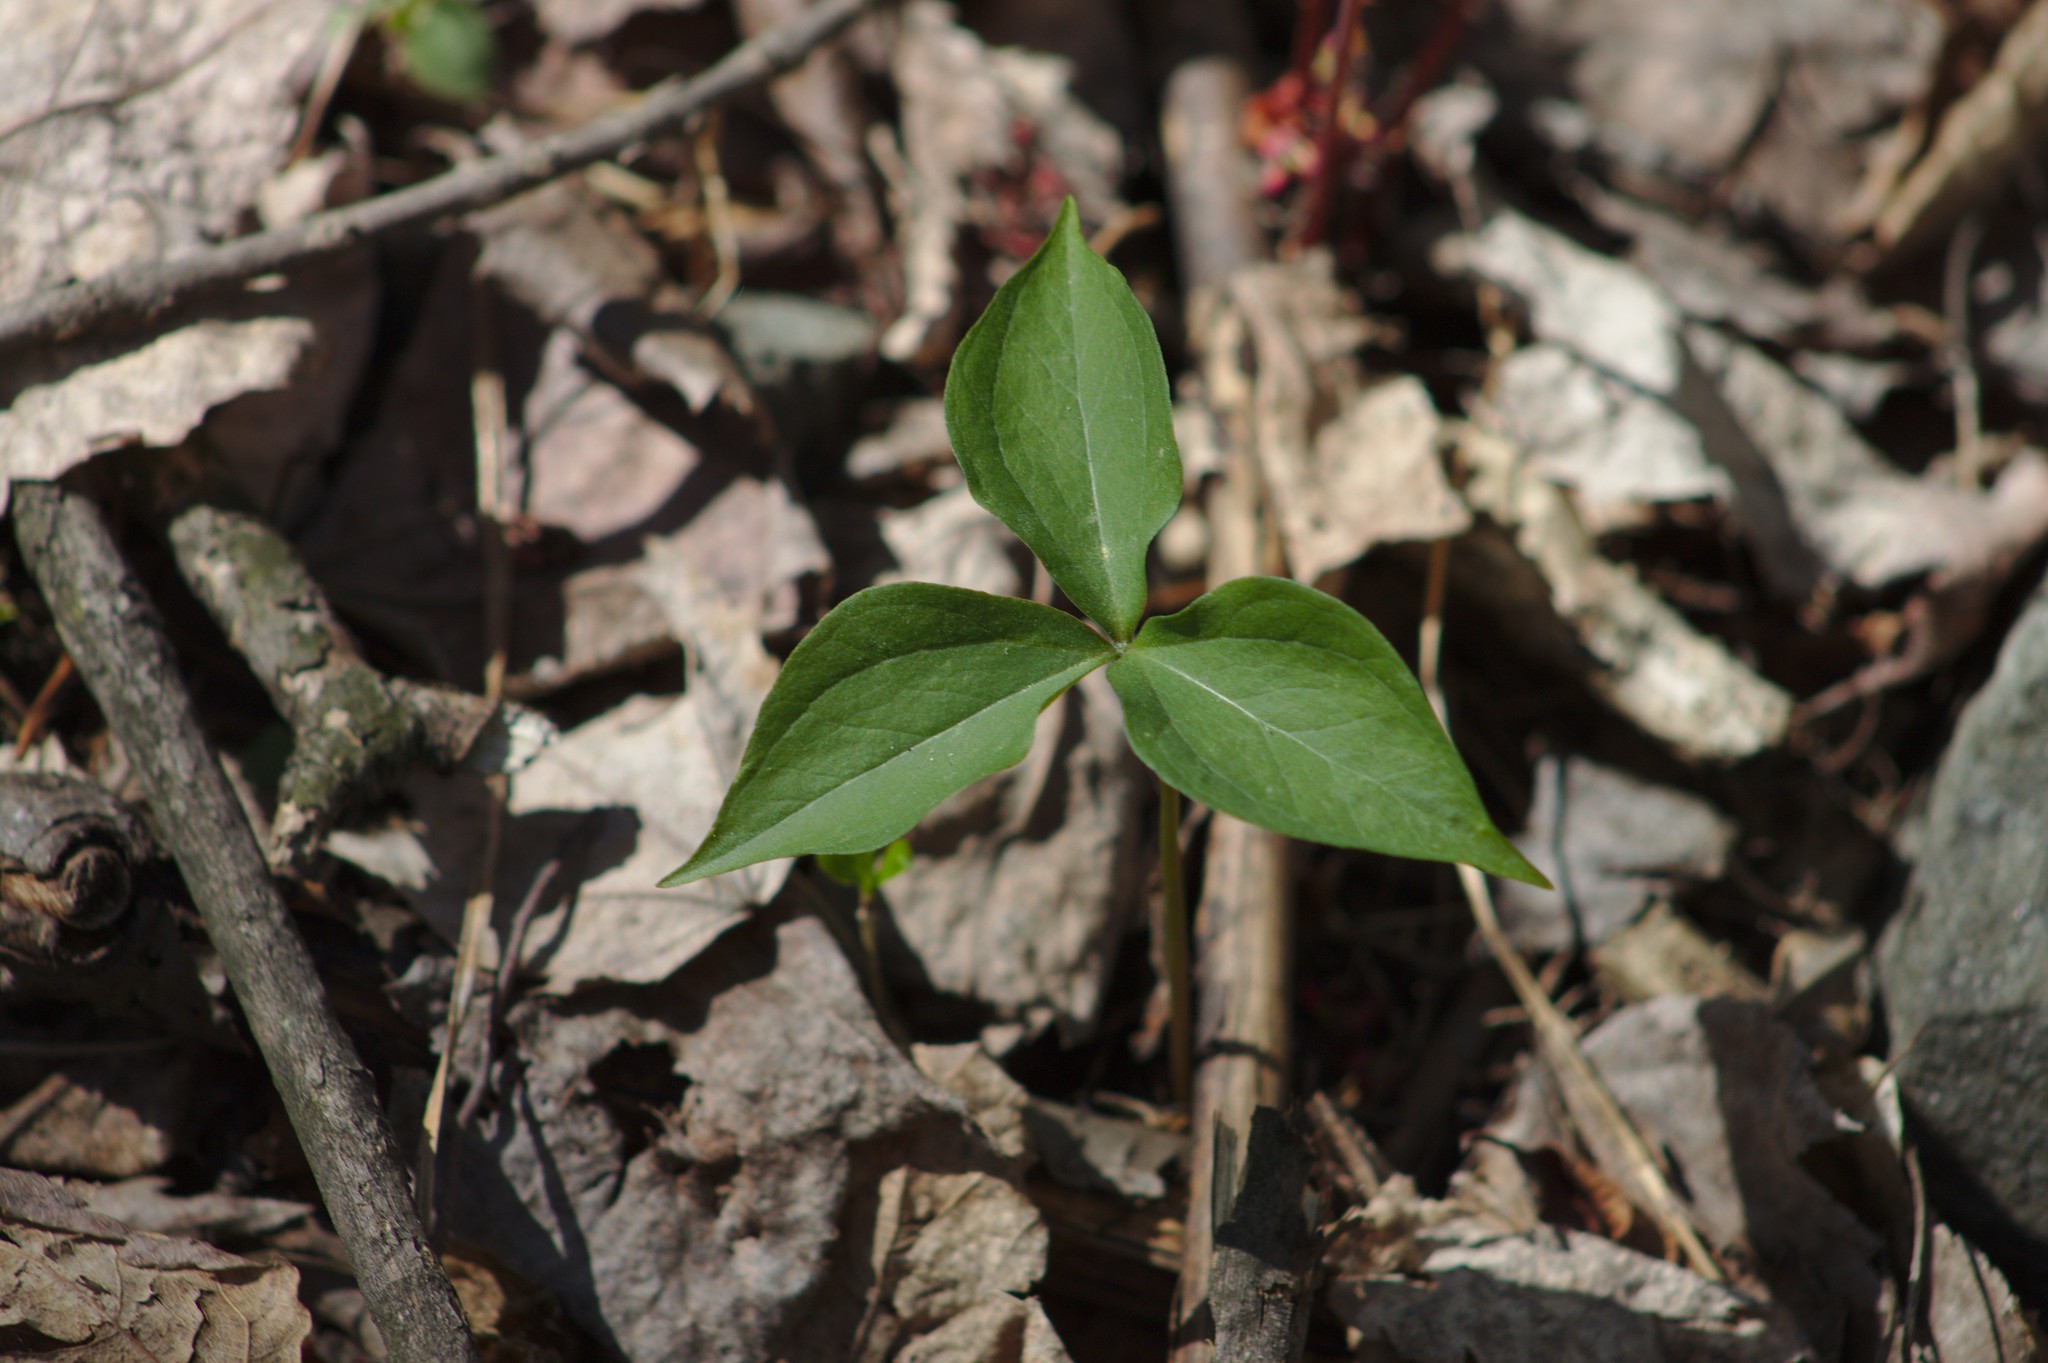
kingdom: Plantae
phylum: Tracheophyta
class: Liliopsida
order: Liliales
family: Melanthiaceae
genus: Trillium
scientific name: Trillium erectum
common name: Purple trillium
